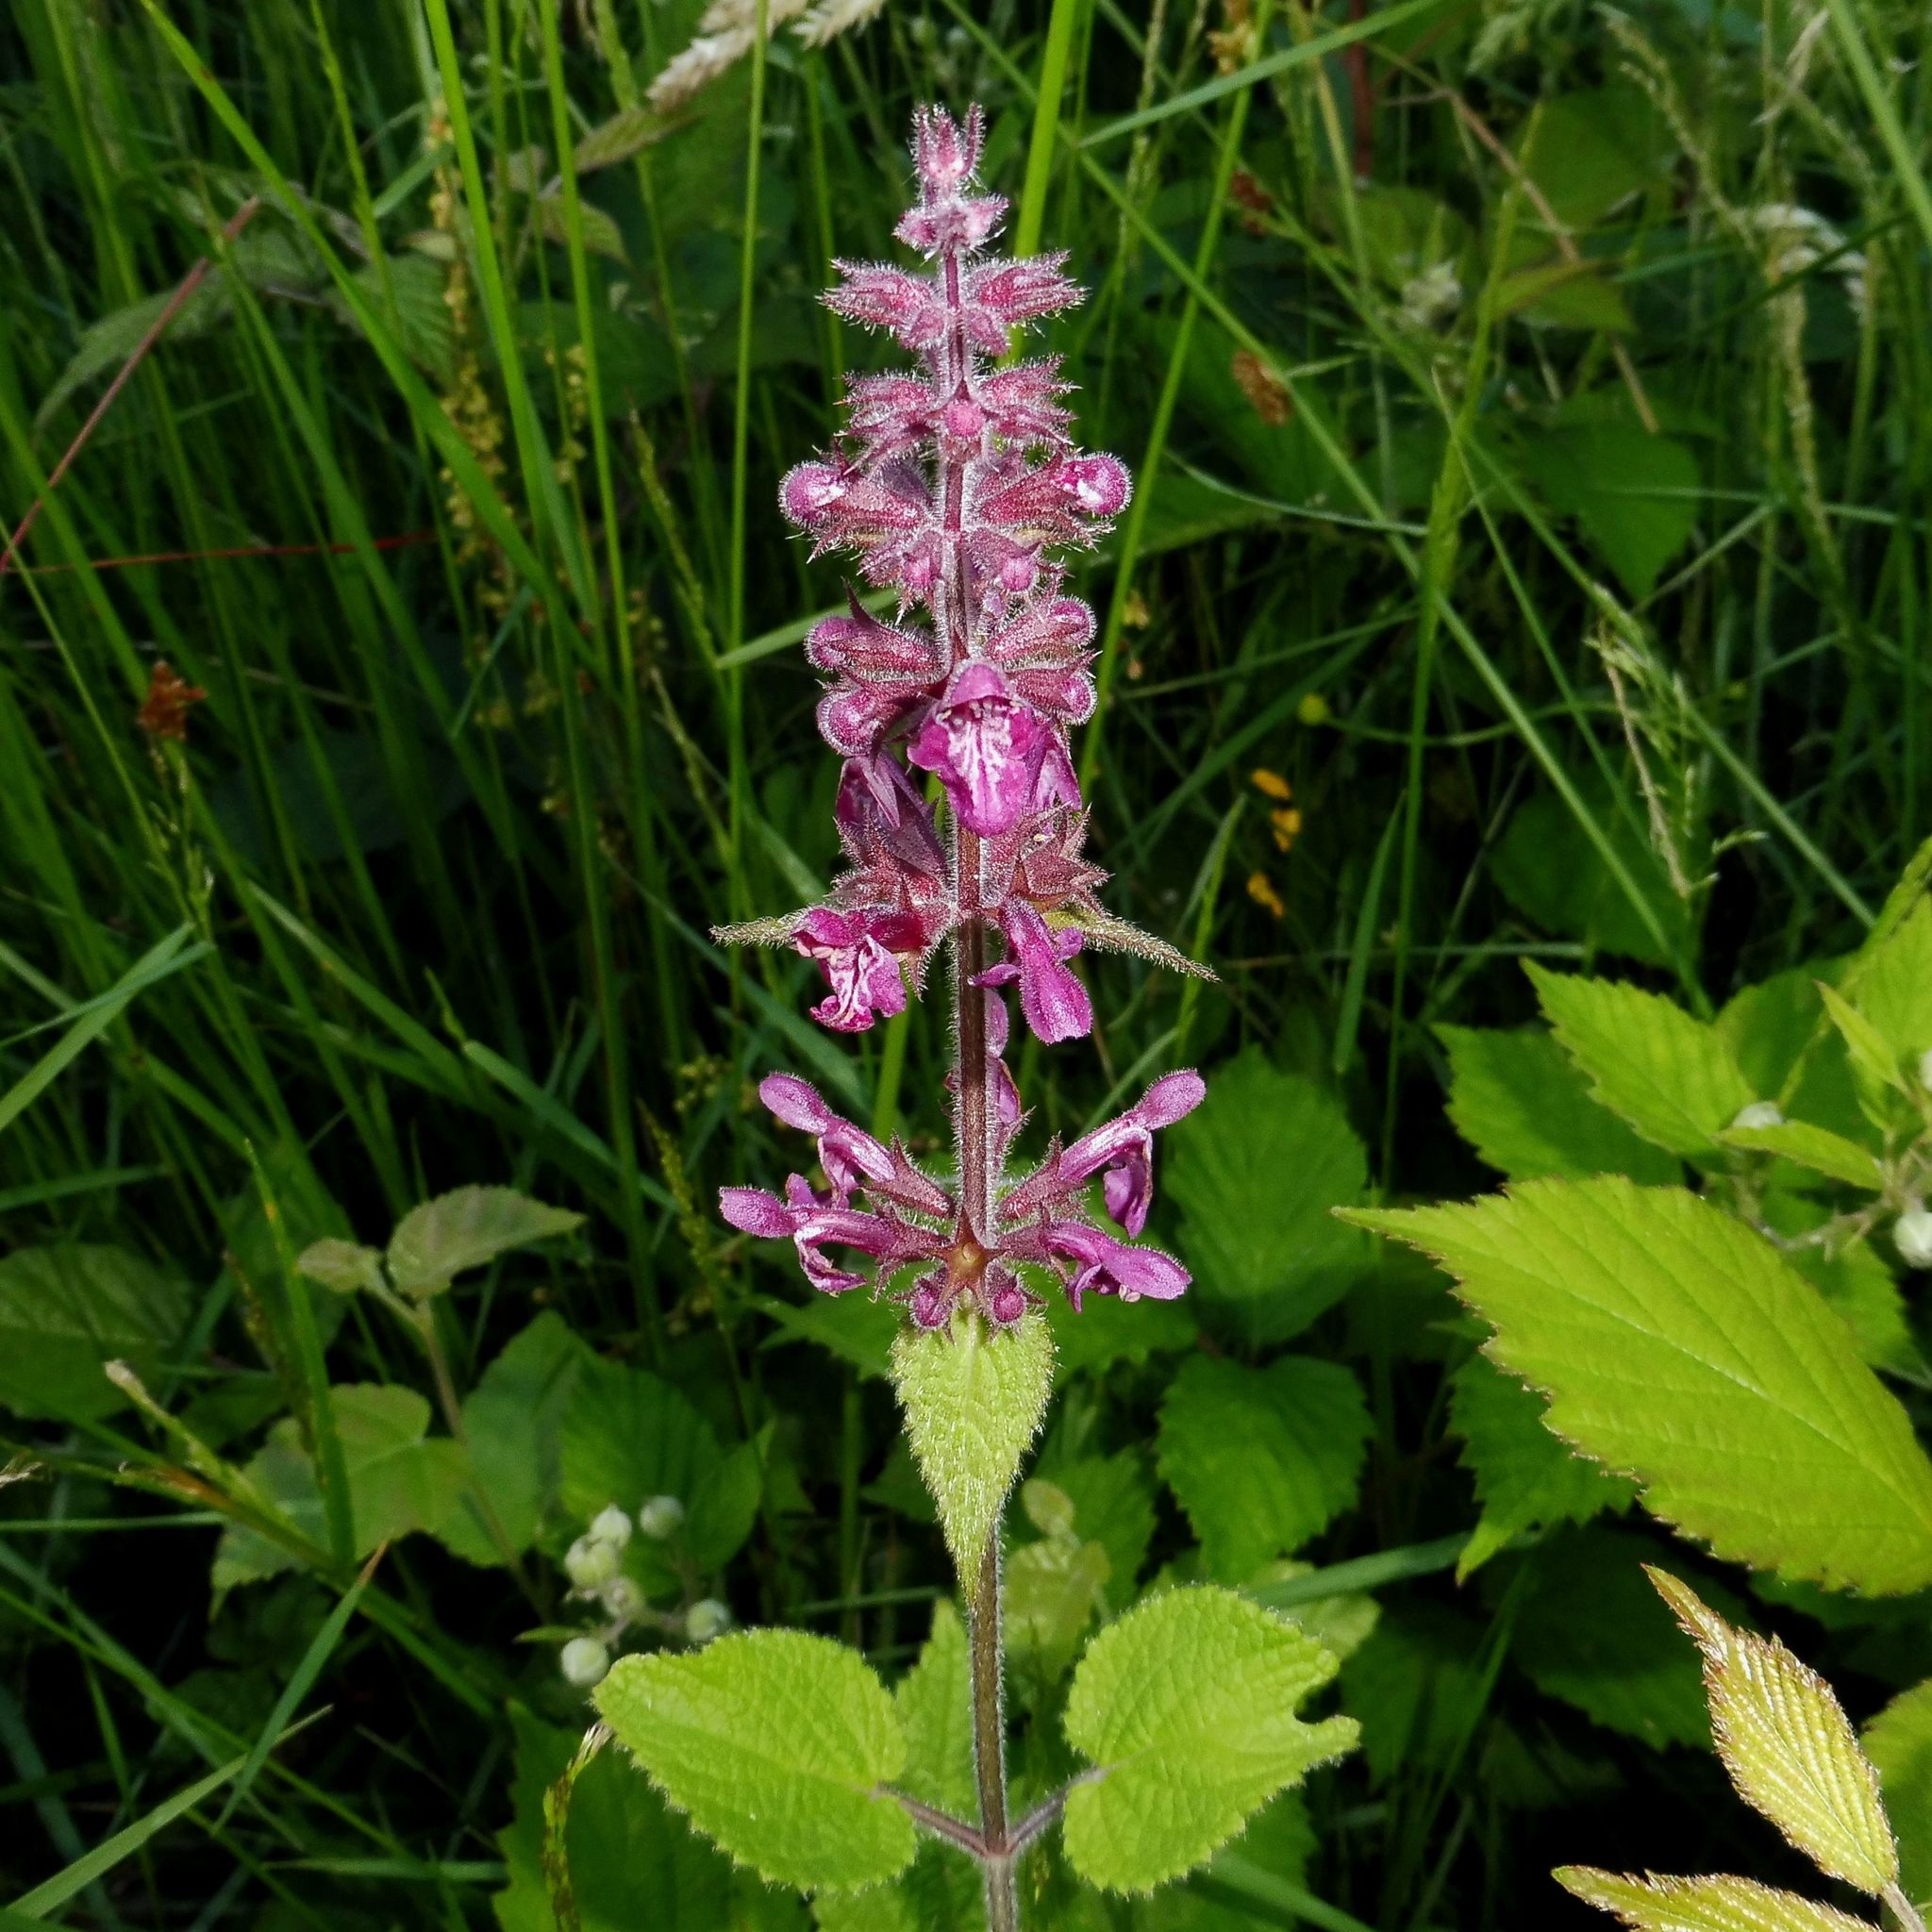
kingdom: Plantae
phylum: Tracheophyta
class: Magnoliopsida
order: Lamiales
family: Lamiaceae
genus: Stachys
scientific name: Stachys sylvatica
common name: Hedge woundwort
